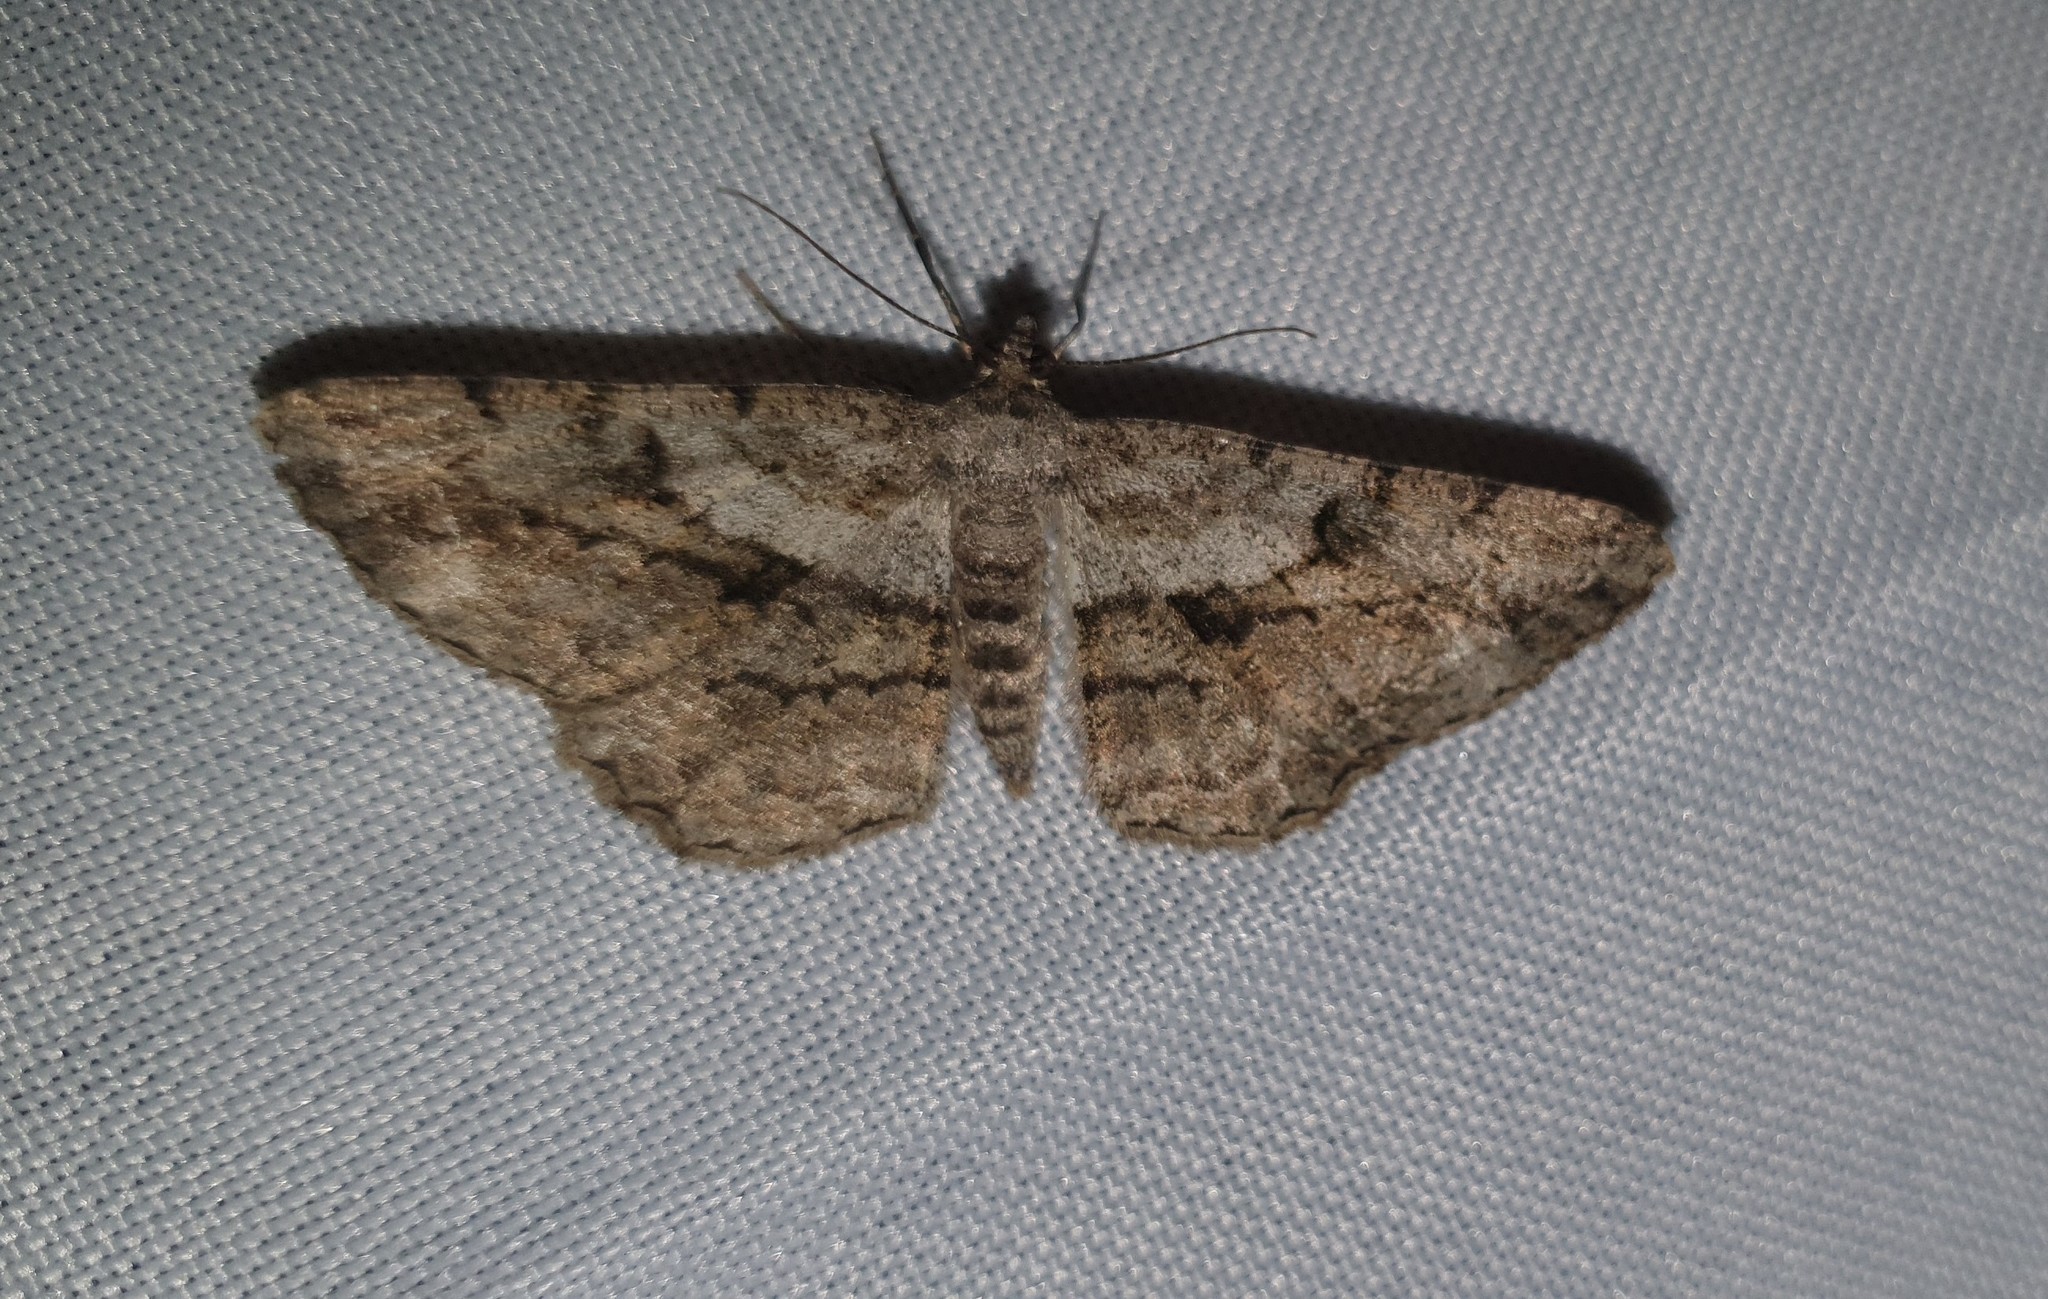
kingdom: Animalia
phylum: Arthropoda
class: Insecta
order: Lepidoptera
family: Geometridae
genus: Peribatodes
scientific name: Peribatodes rhomboidaria
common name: Willow beauty
